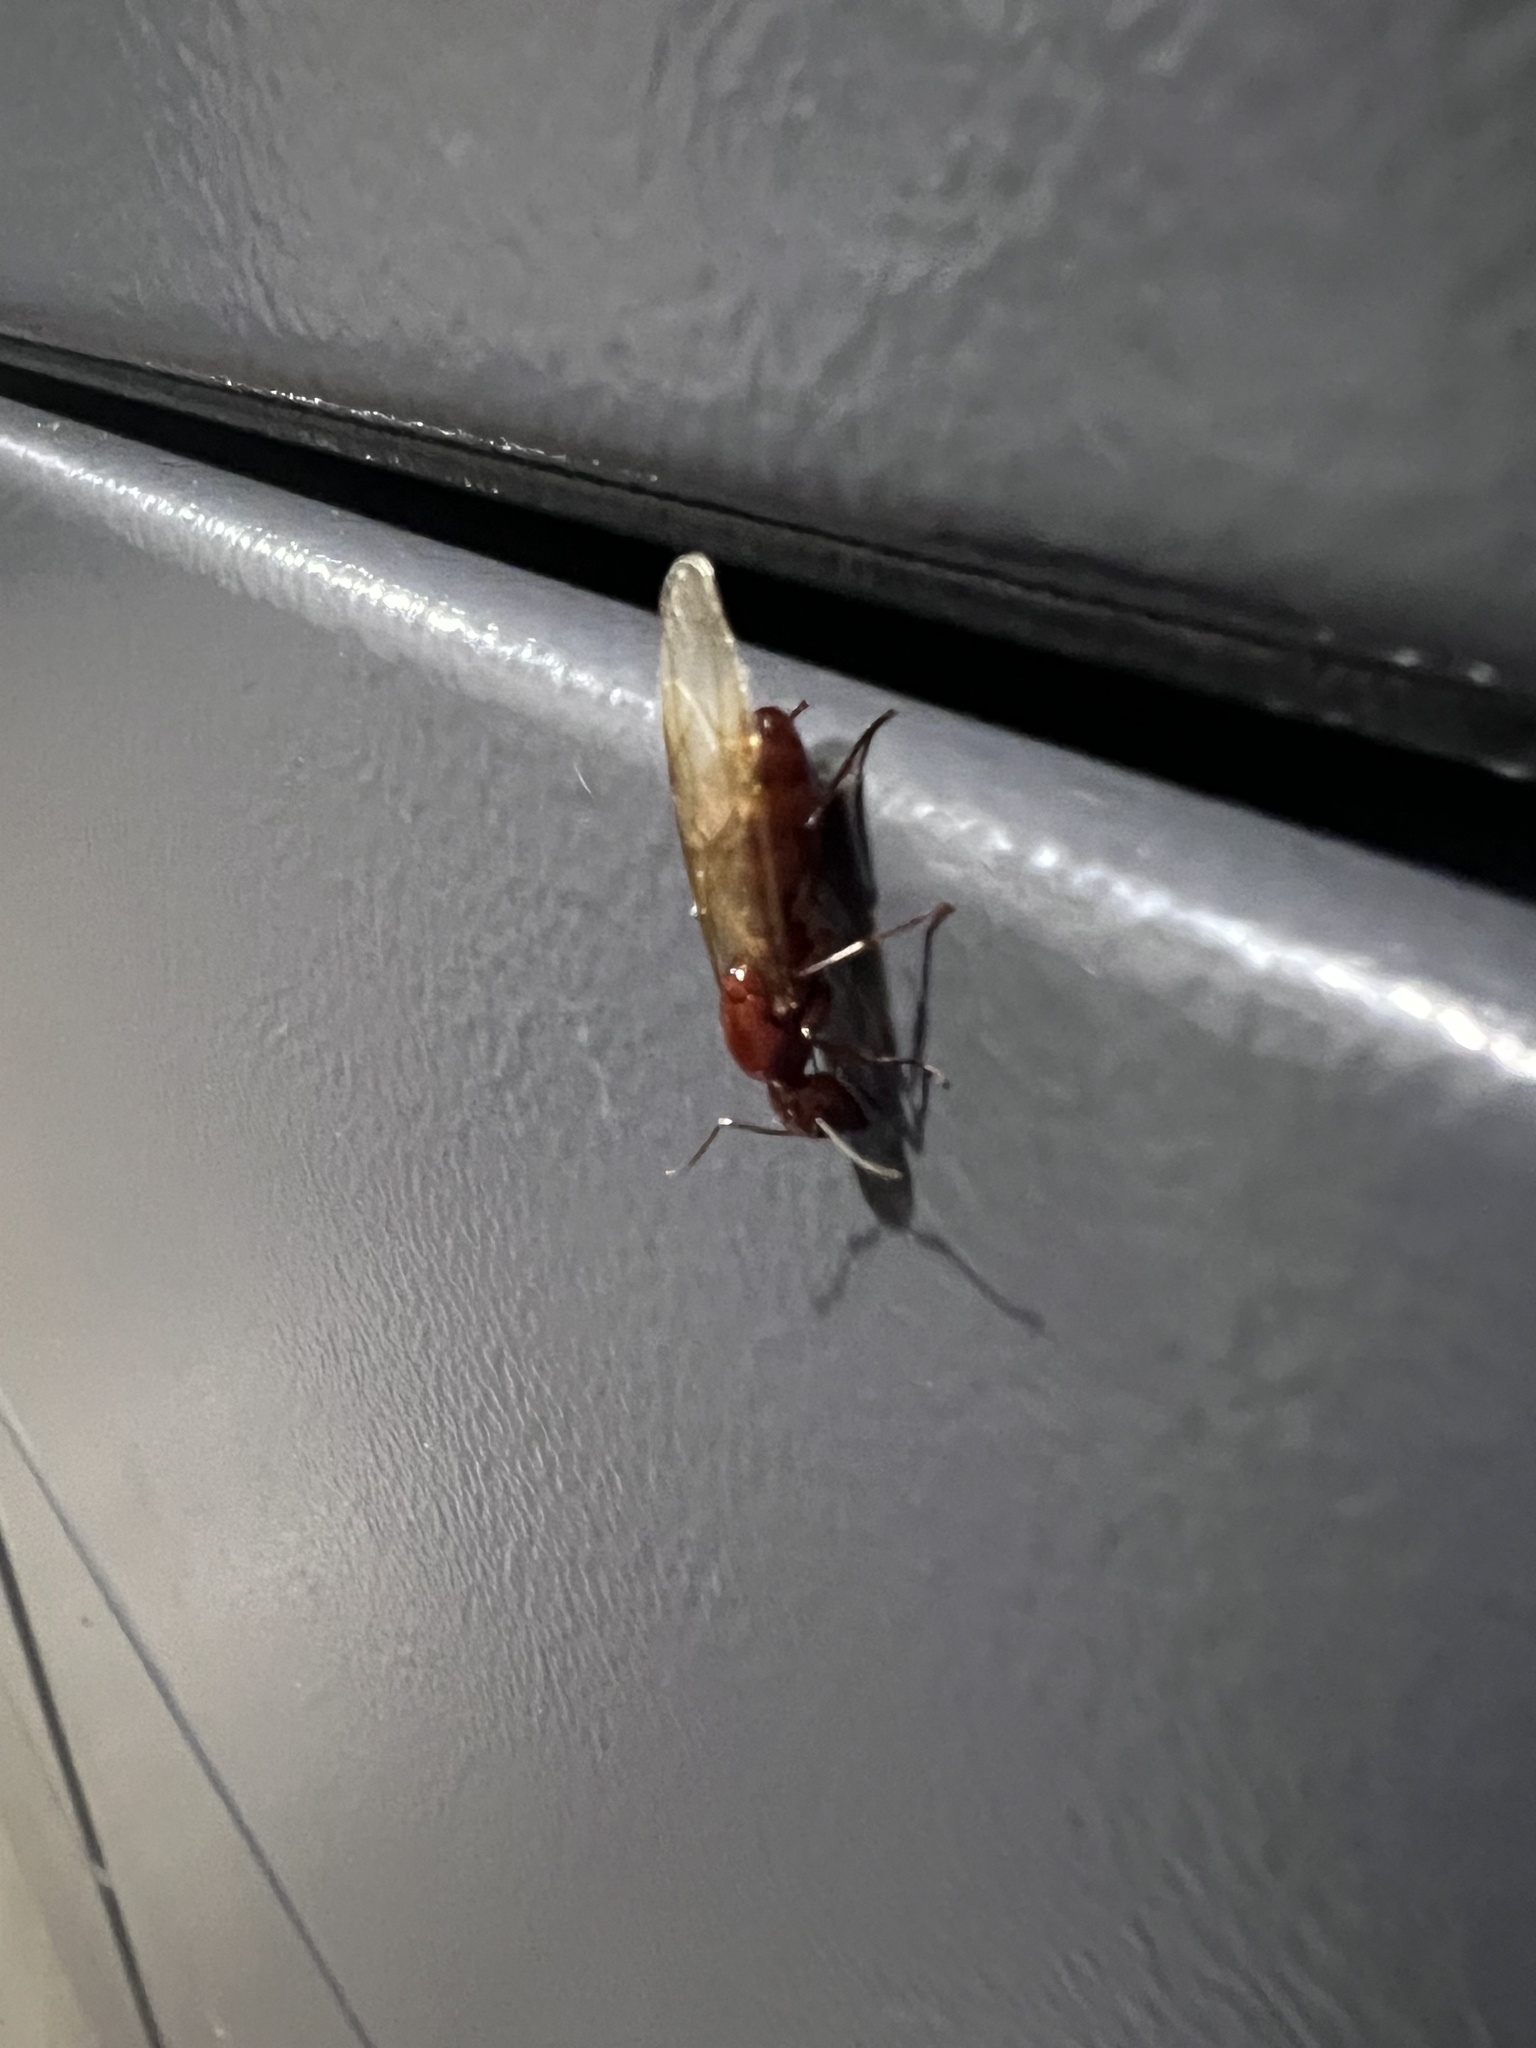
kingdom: Animalia
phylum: Arthropoda
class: Insecta
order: Hymenoptera
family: Formicidae
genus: Camponotus
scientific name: Camponotus castaneus
